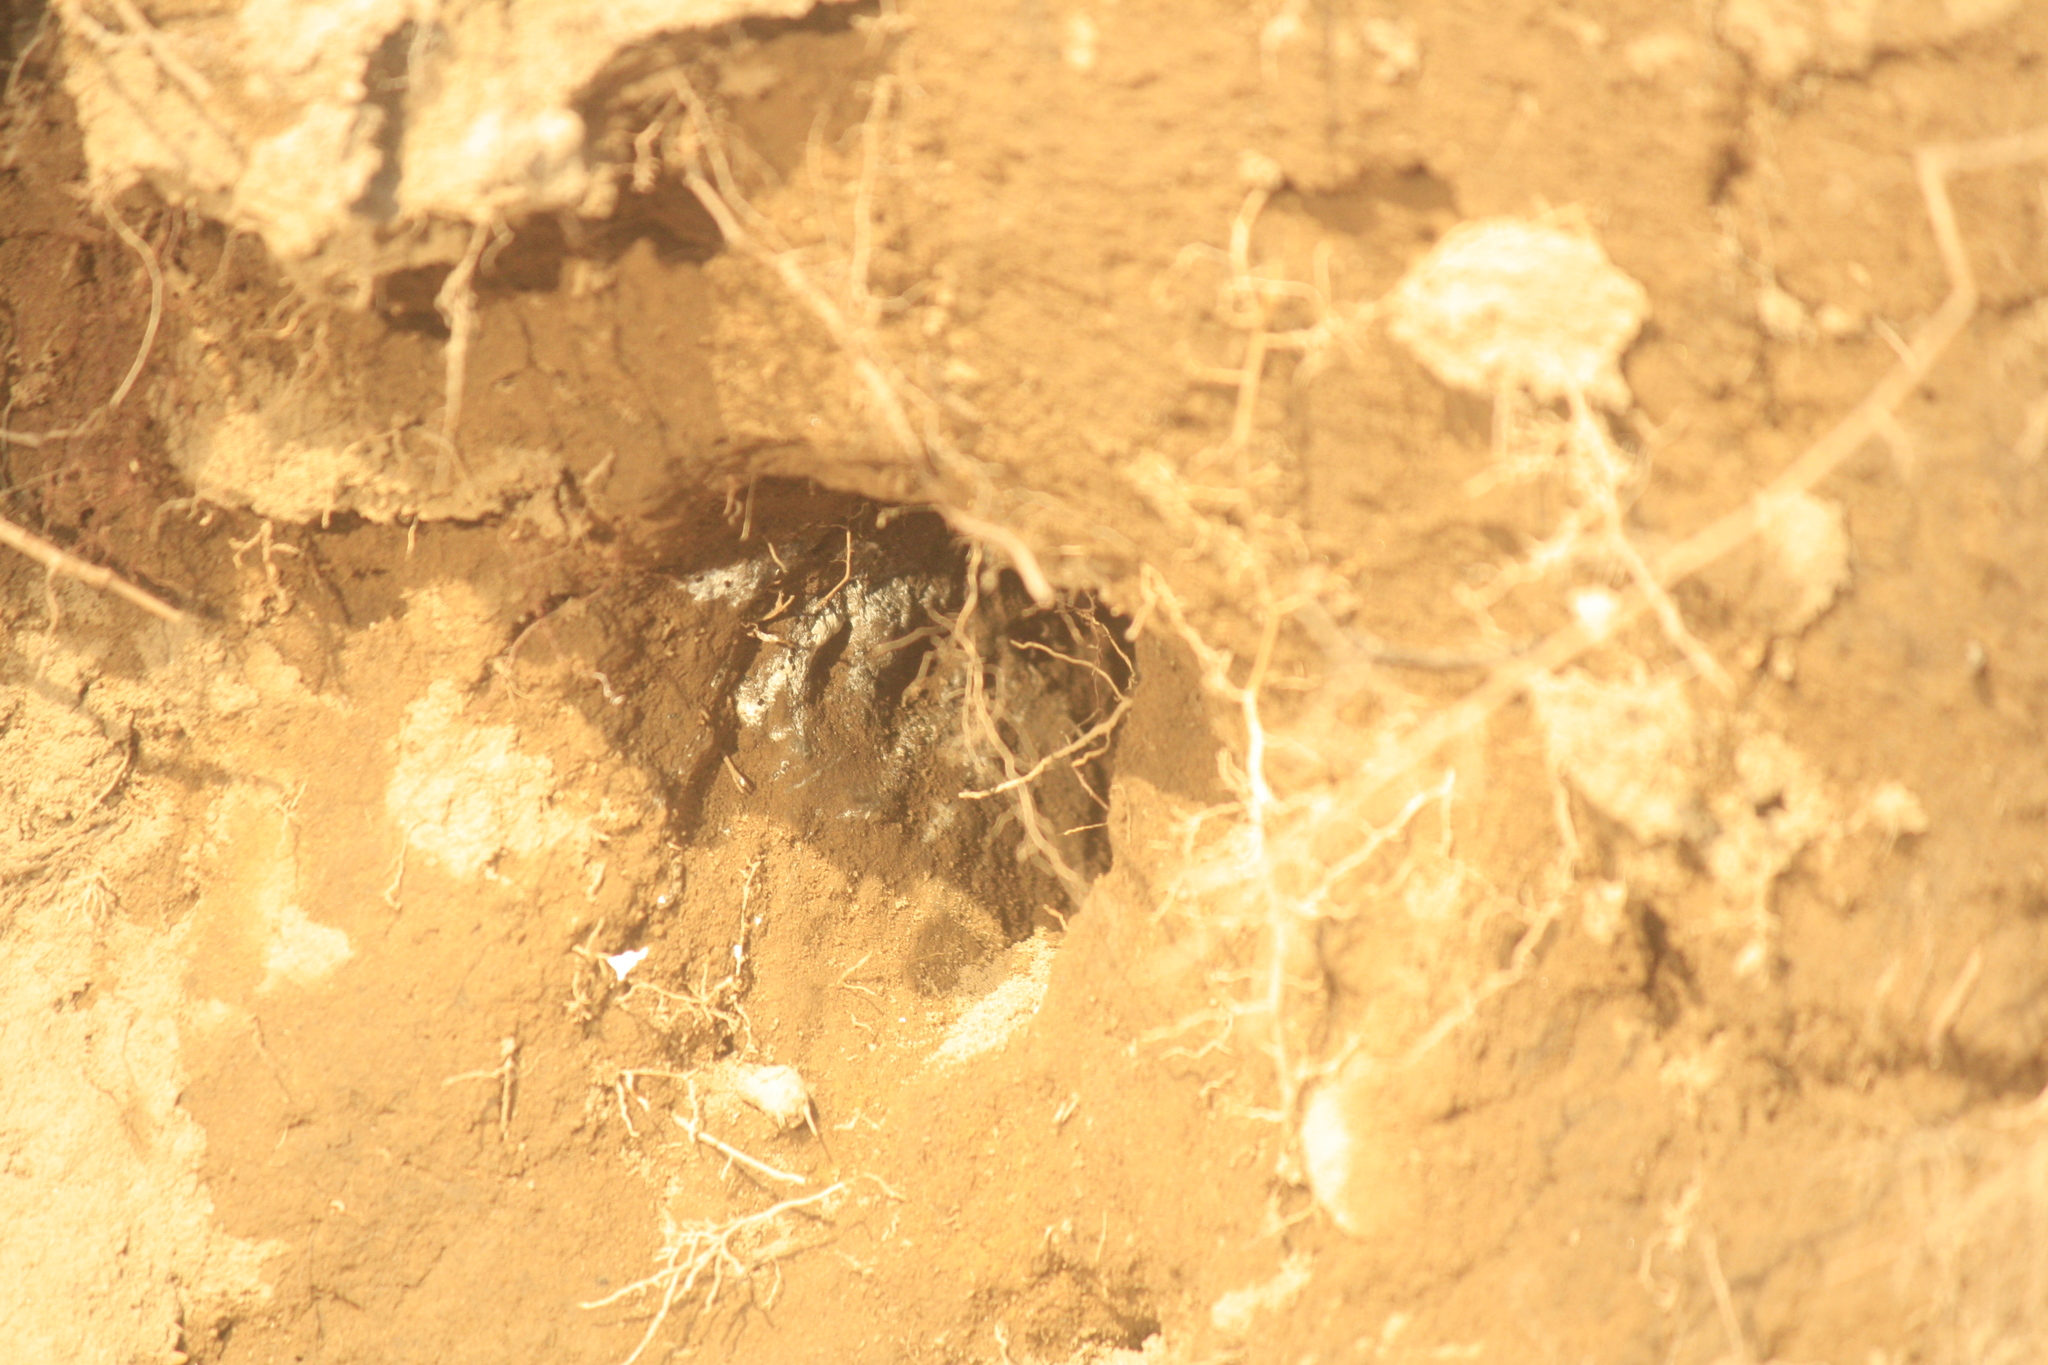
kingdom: Animalia
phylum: Chordata
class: Aves
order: Coraciiformes
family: Alcedinidae
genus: Alcedo
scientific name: Alcedo atthis
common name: Common kingfisher
